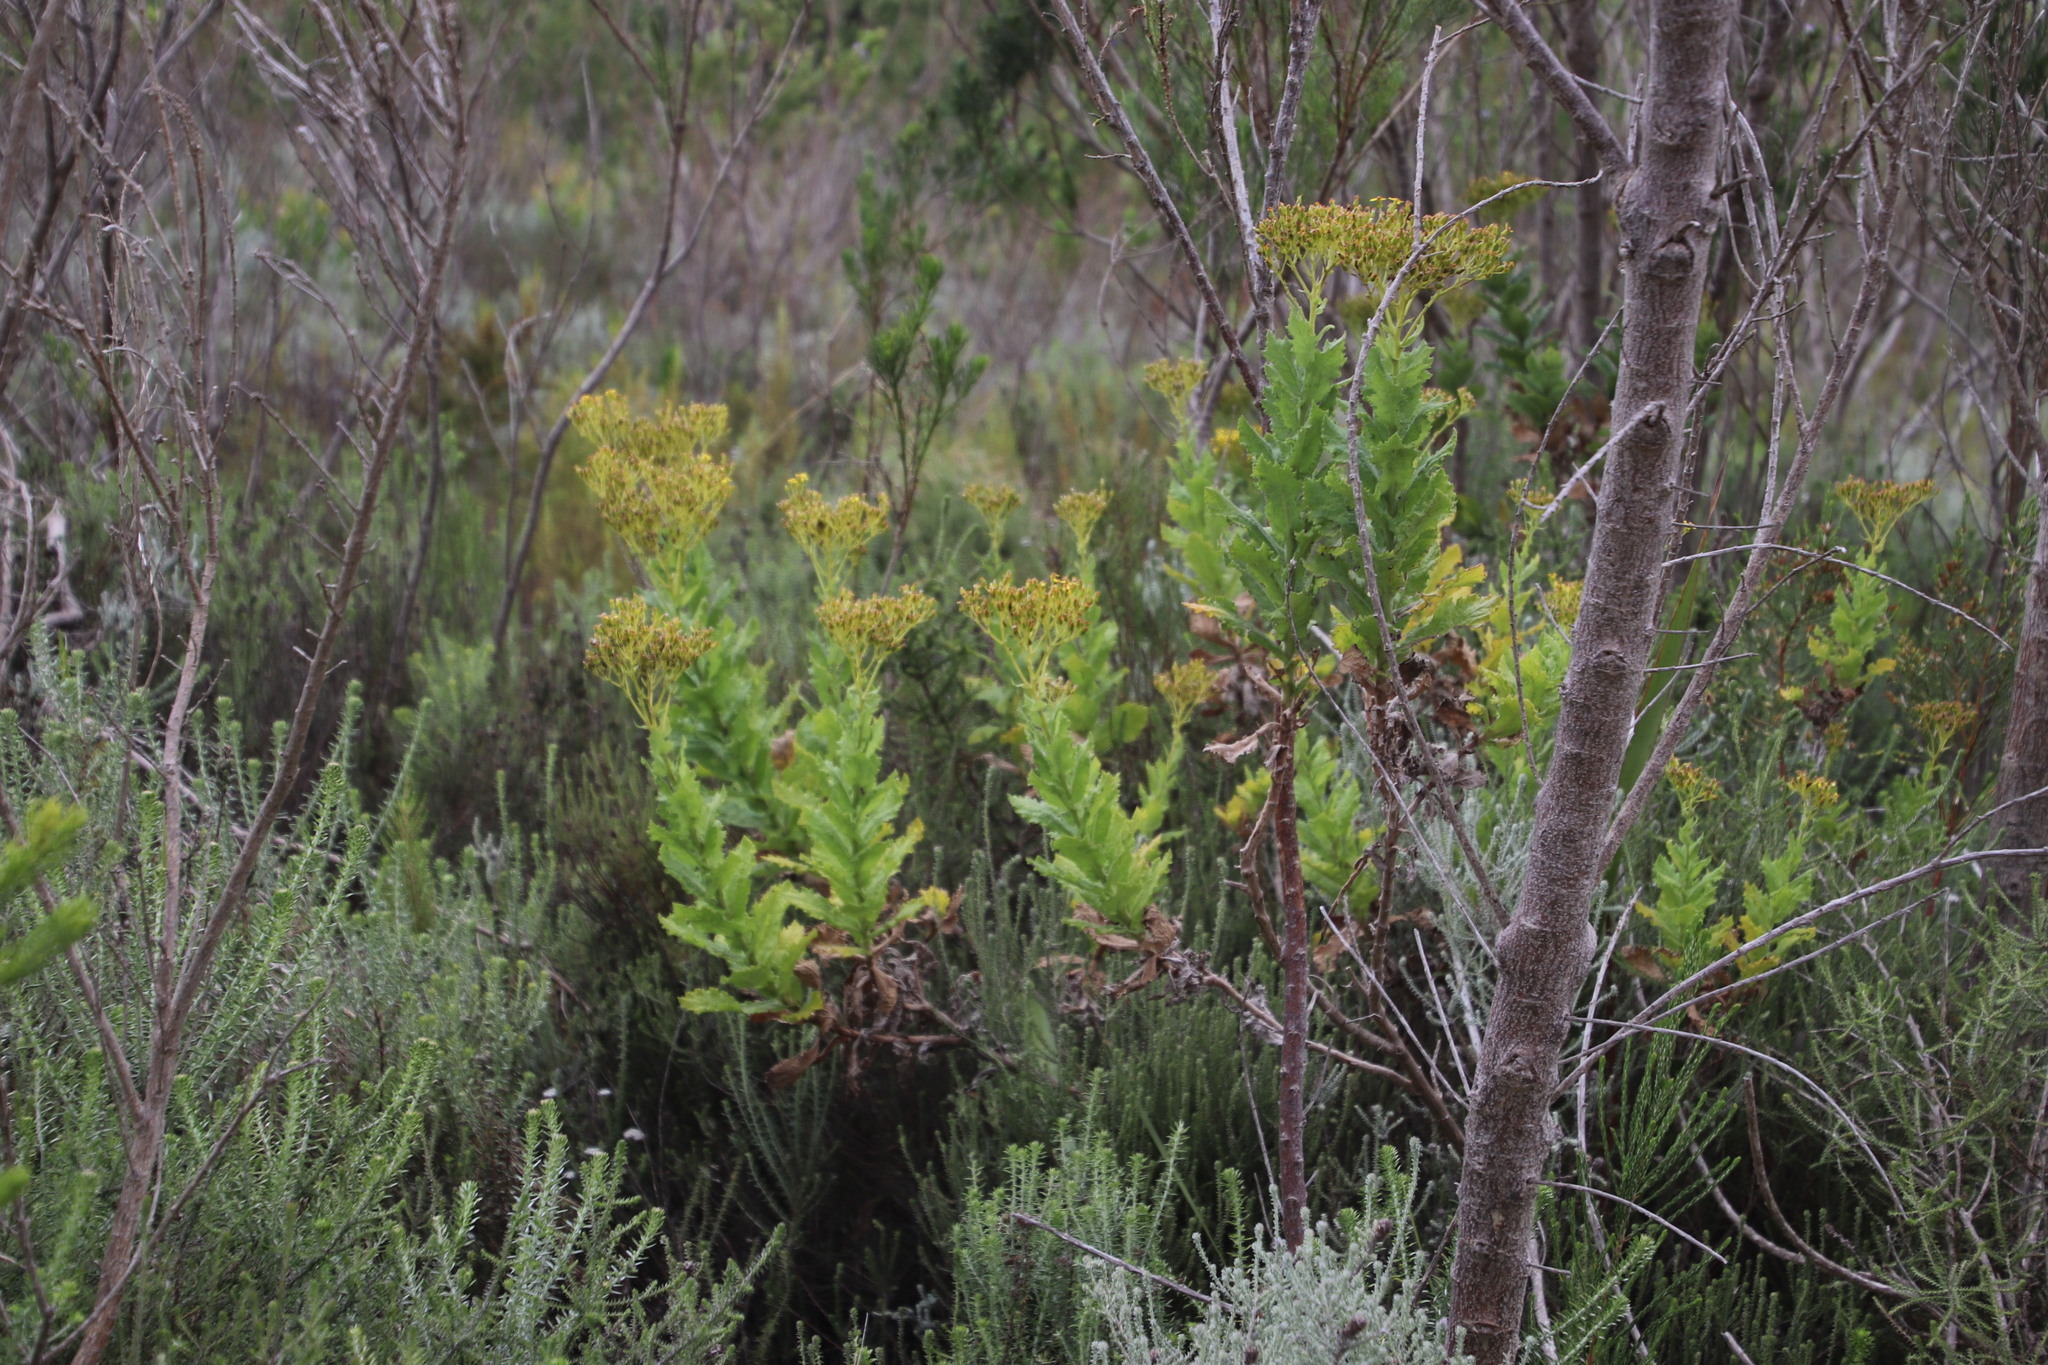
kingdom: Plantae
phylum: Tracheophyta
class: Magnoliopsida
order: Asterales
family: Asteraceae
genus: Senecio
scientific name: Senecio rigidus
